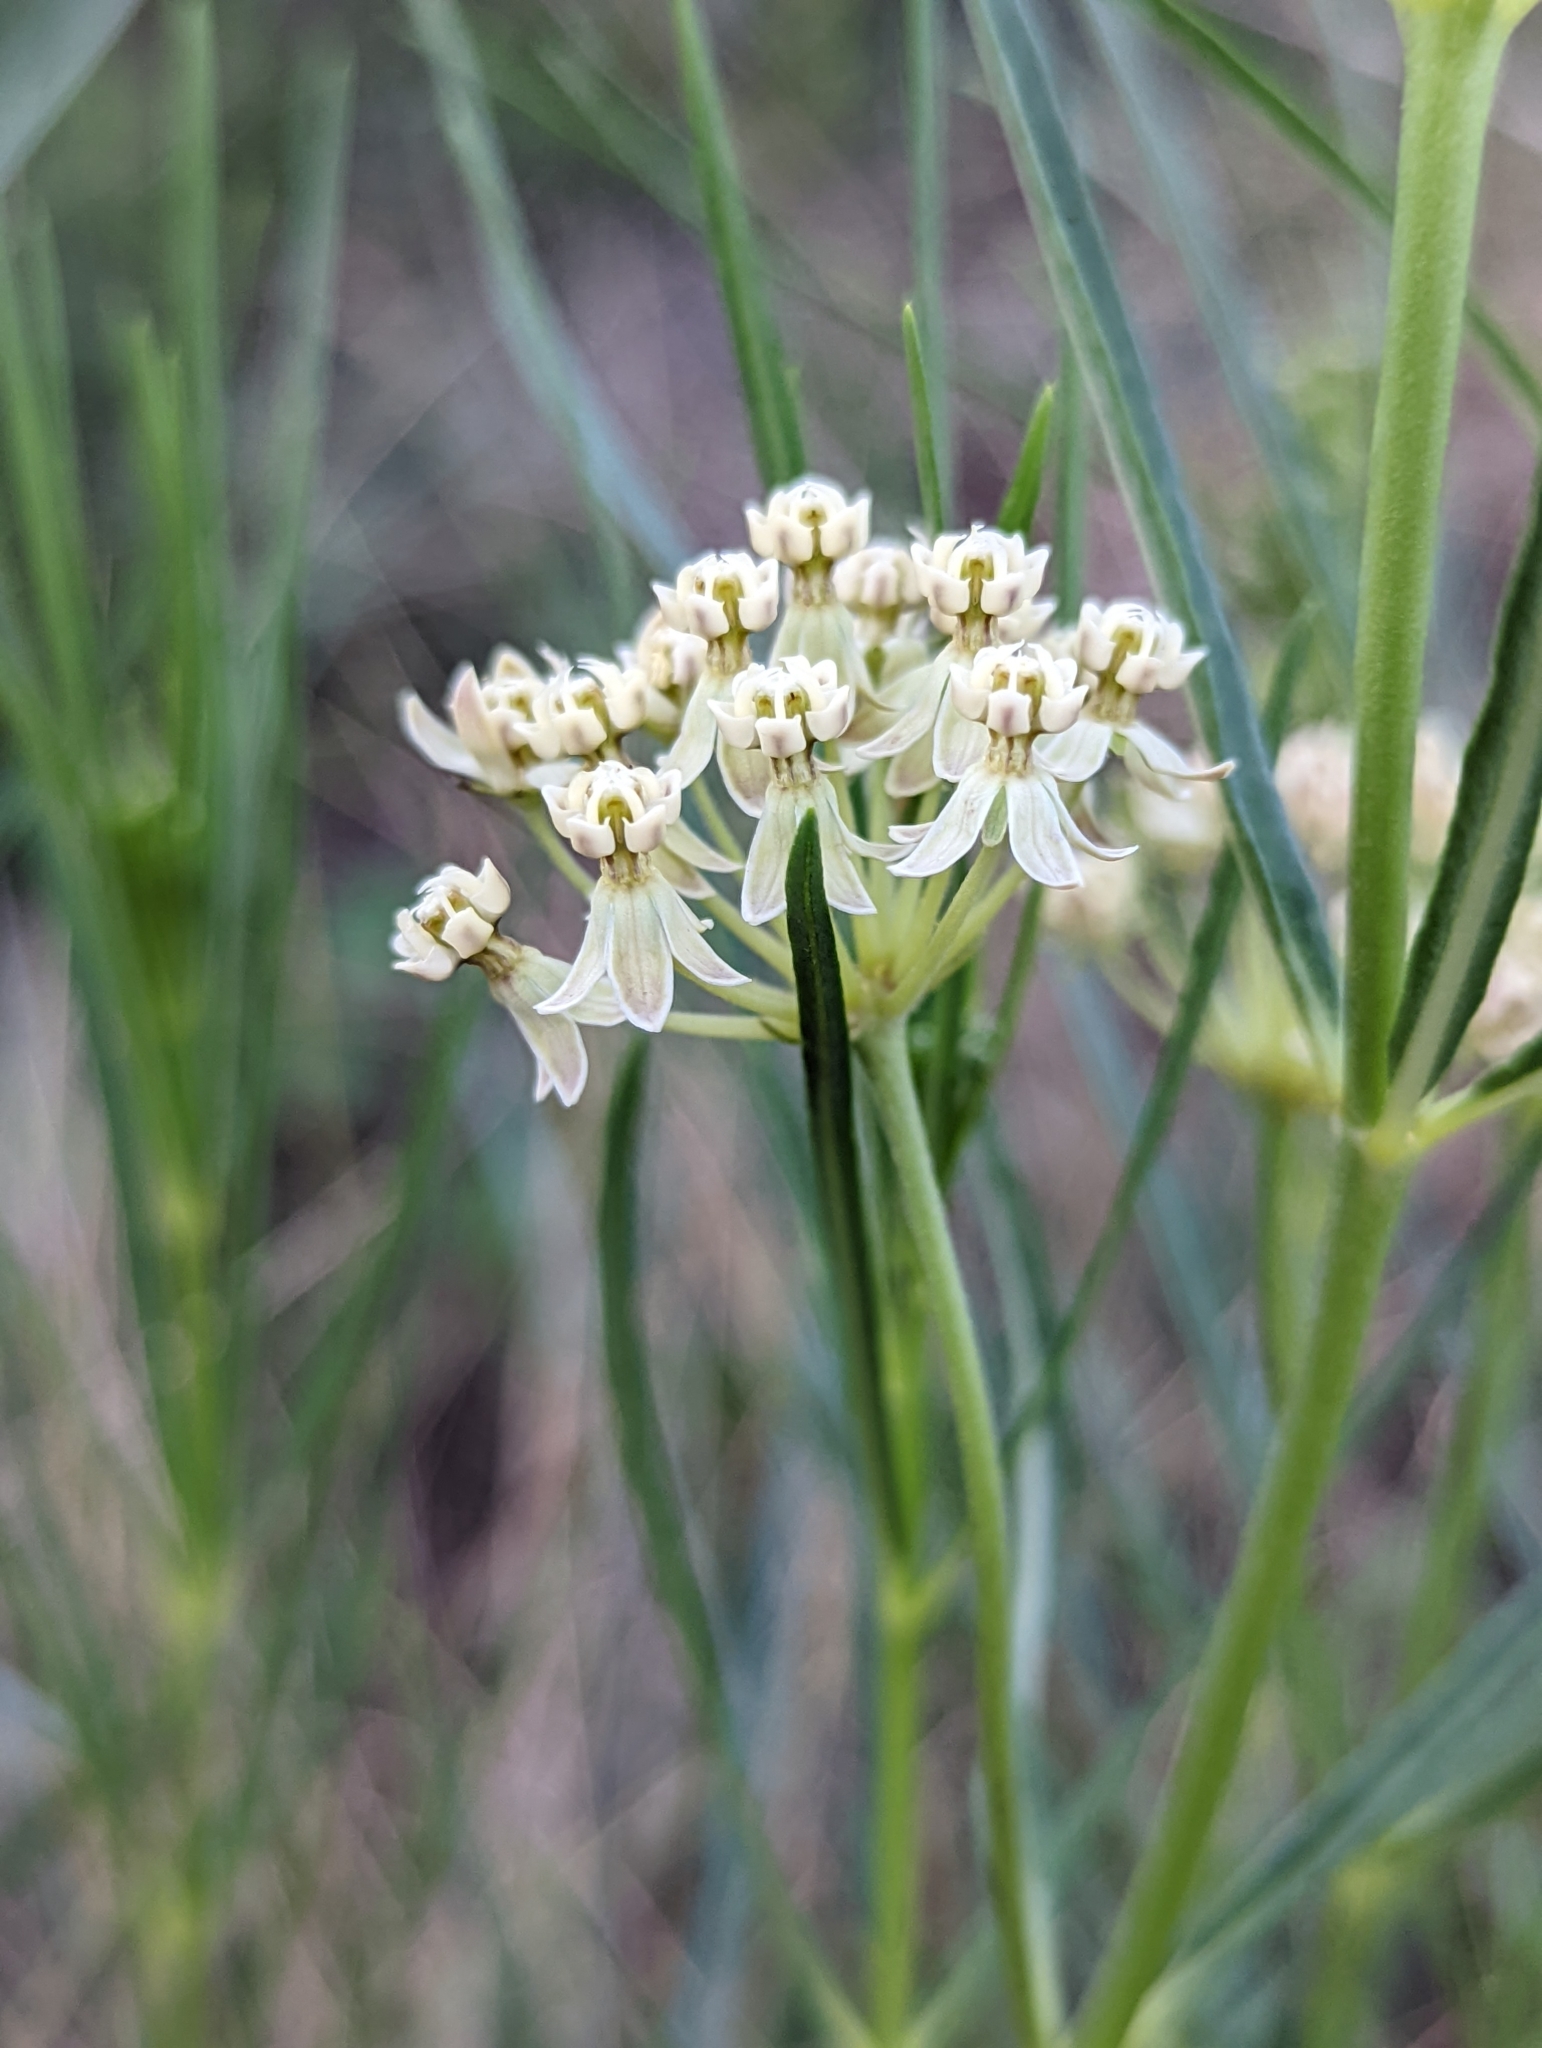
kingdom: Plantae
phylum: Tracheophyta
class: Magnoliopsida
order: Gentianales
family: Apocynaceae
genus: Asclepias
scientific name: Asclepias subverticillata
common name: Horsetail milkweed
